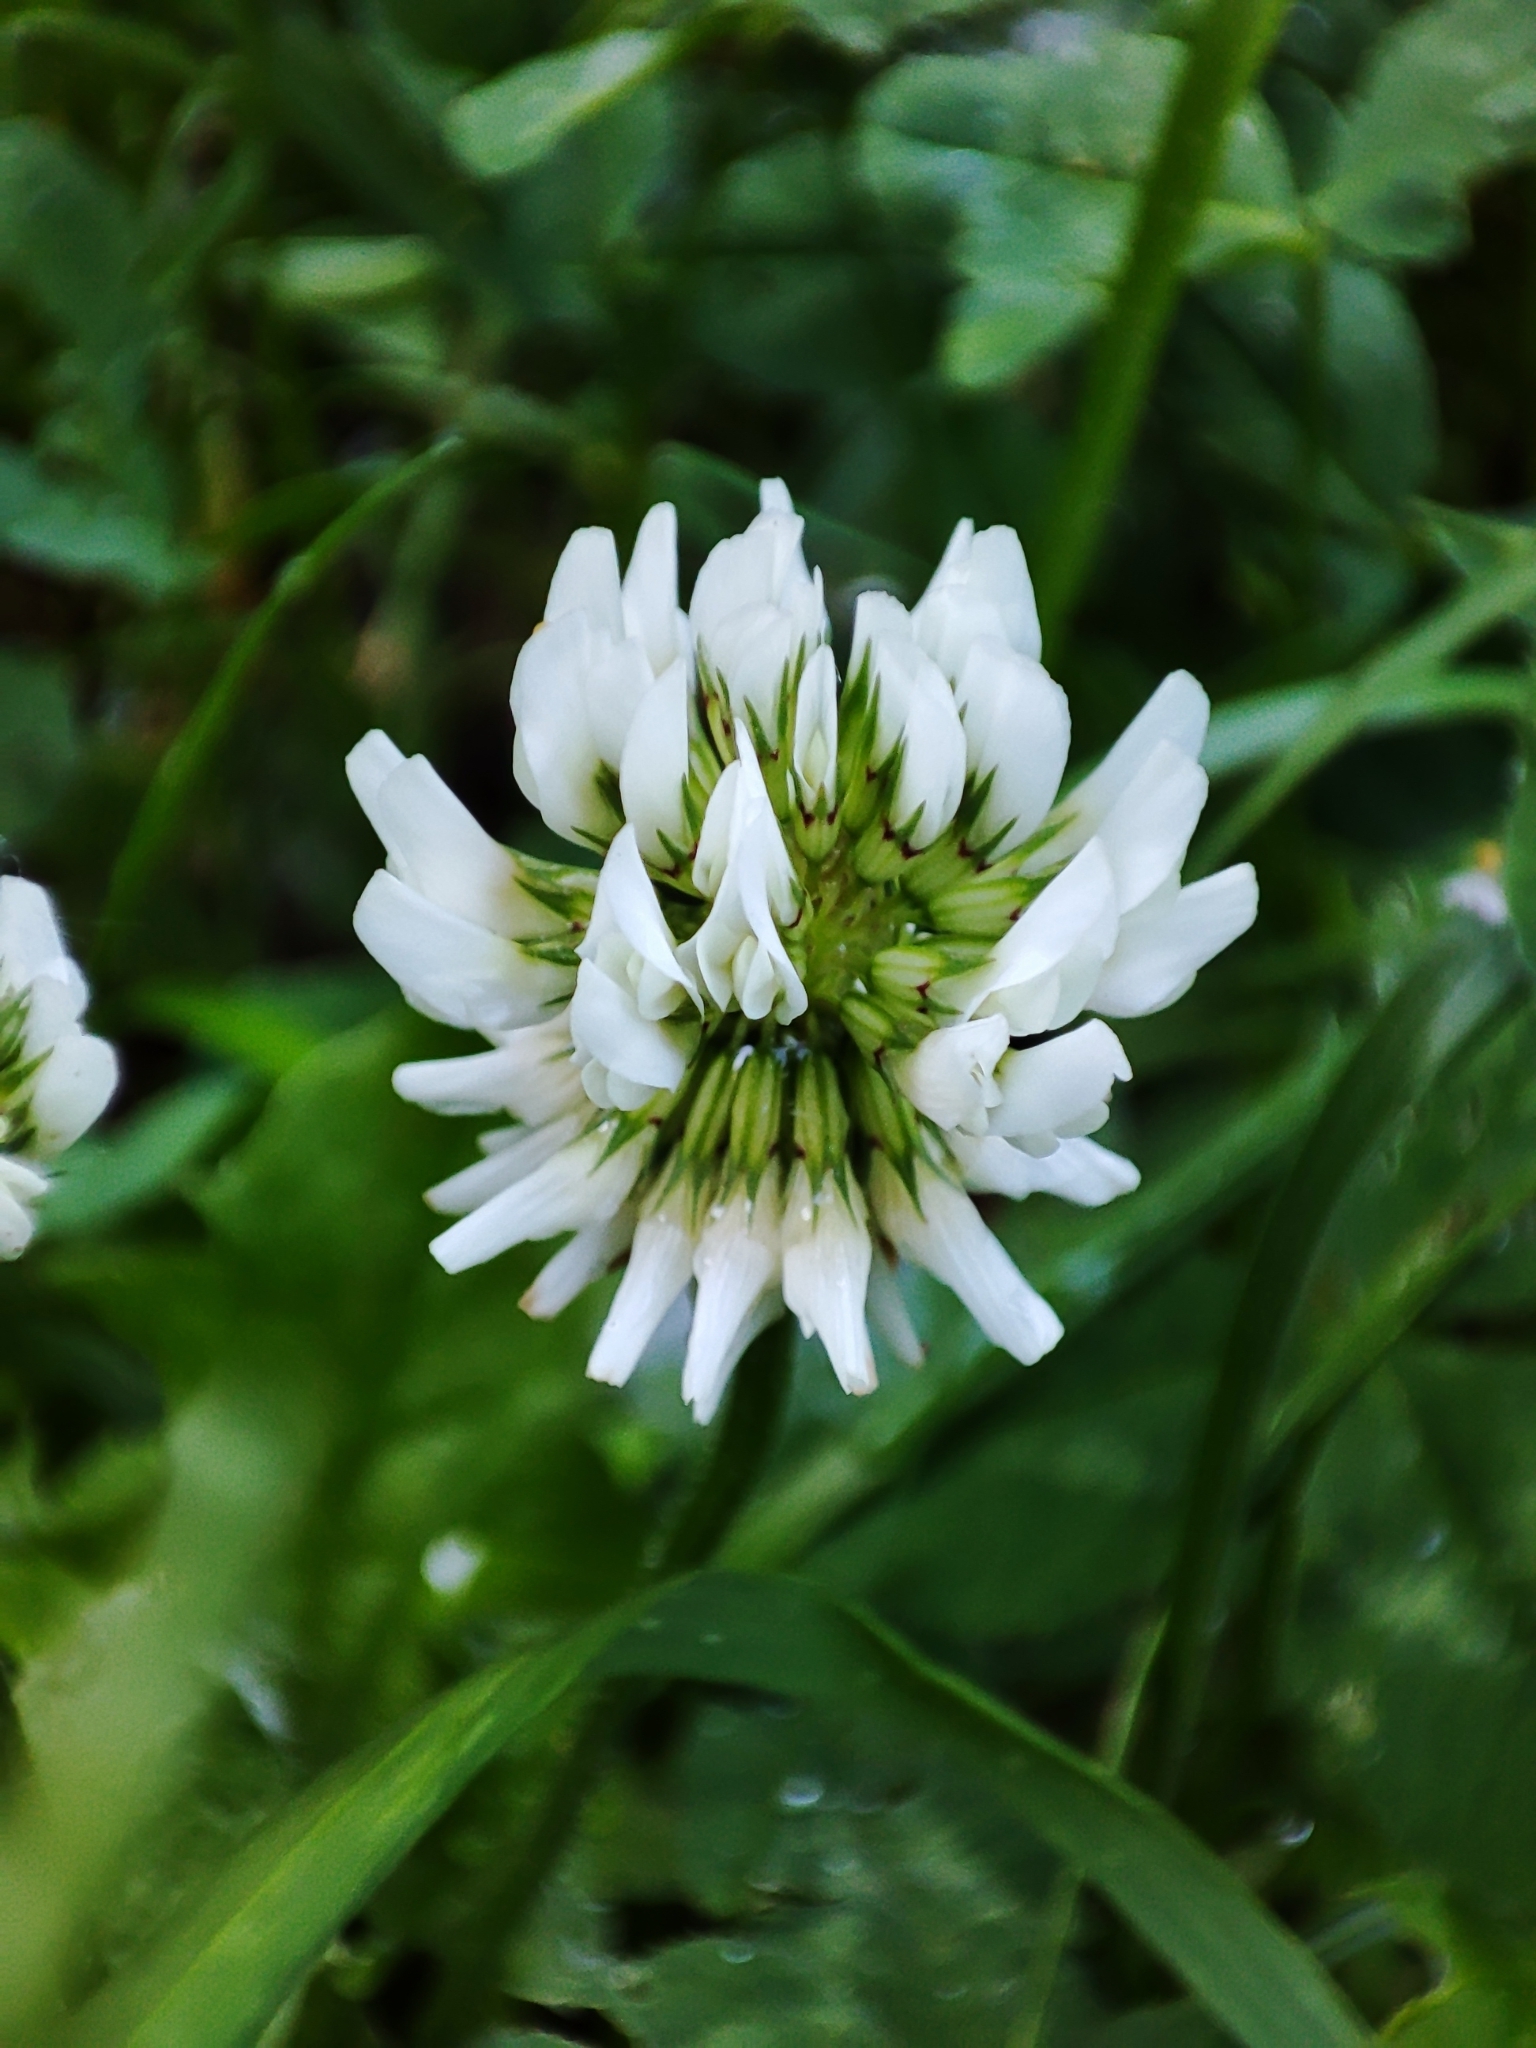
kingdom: Plantae
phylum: Tracheophyta
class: Magnoliopsida
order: Fabales
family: Fabaceae
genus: Trifolium
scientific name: Trifolium repens
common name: White clover
